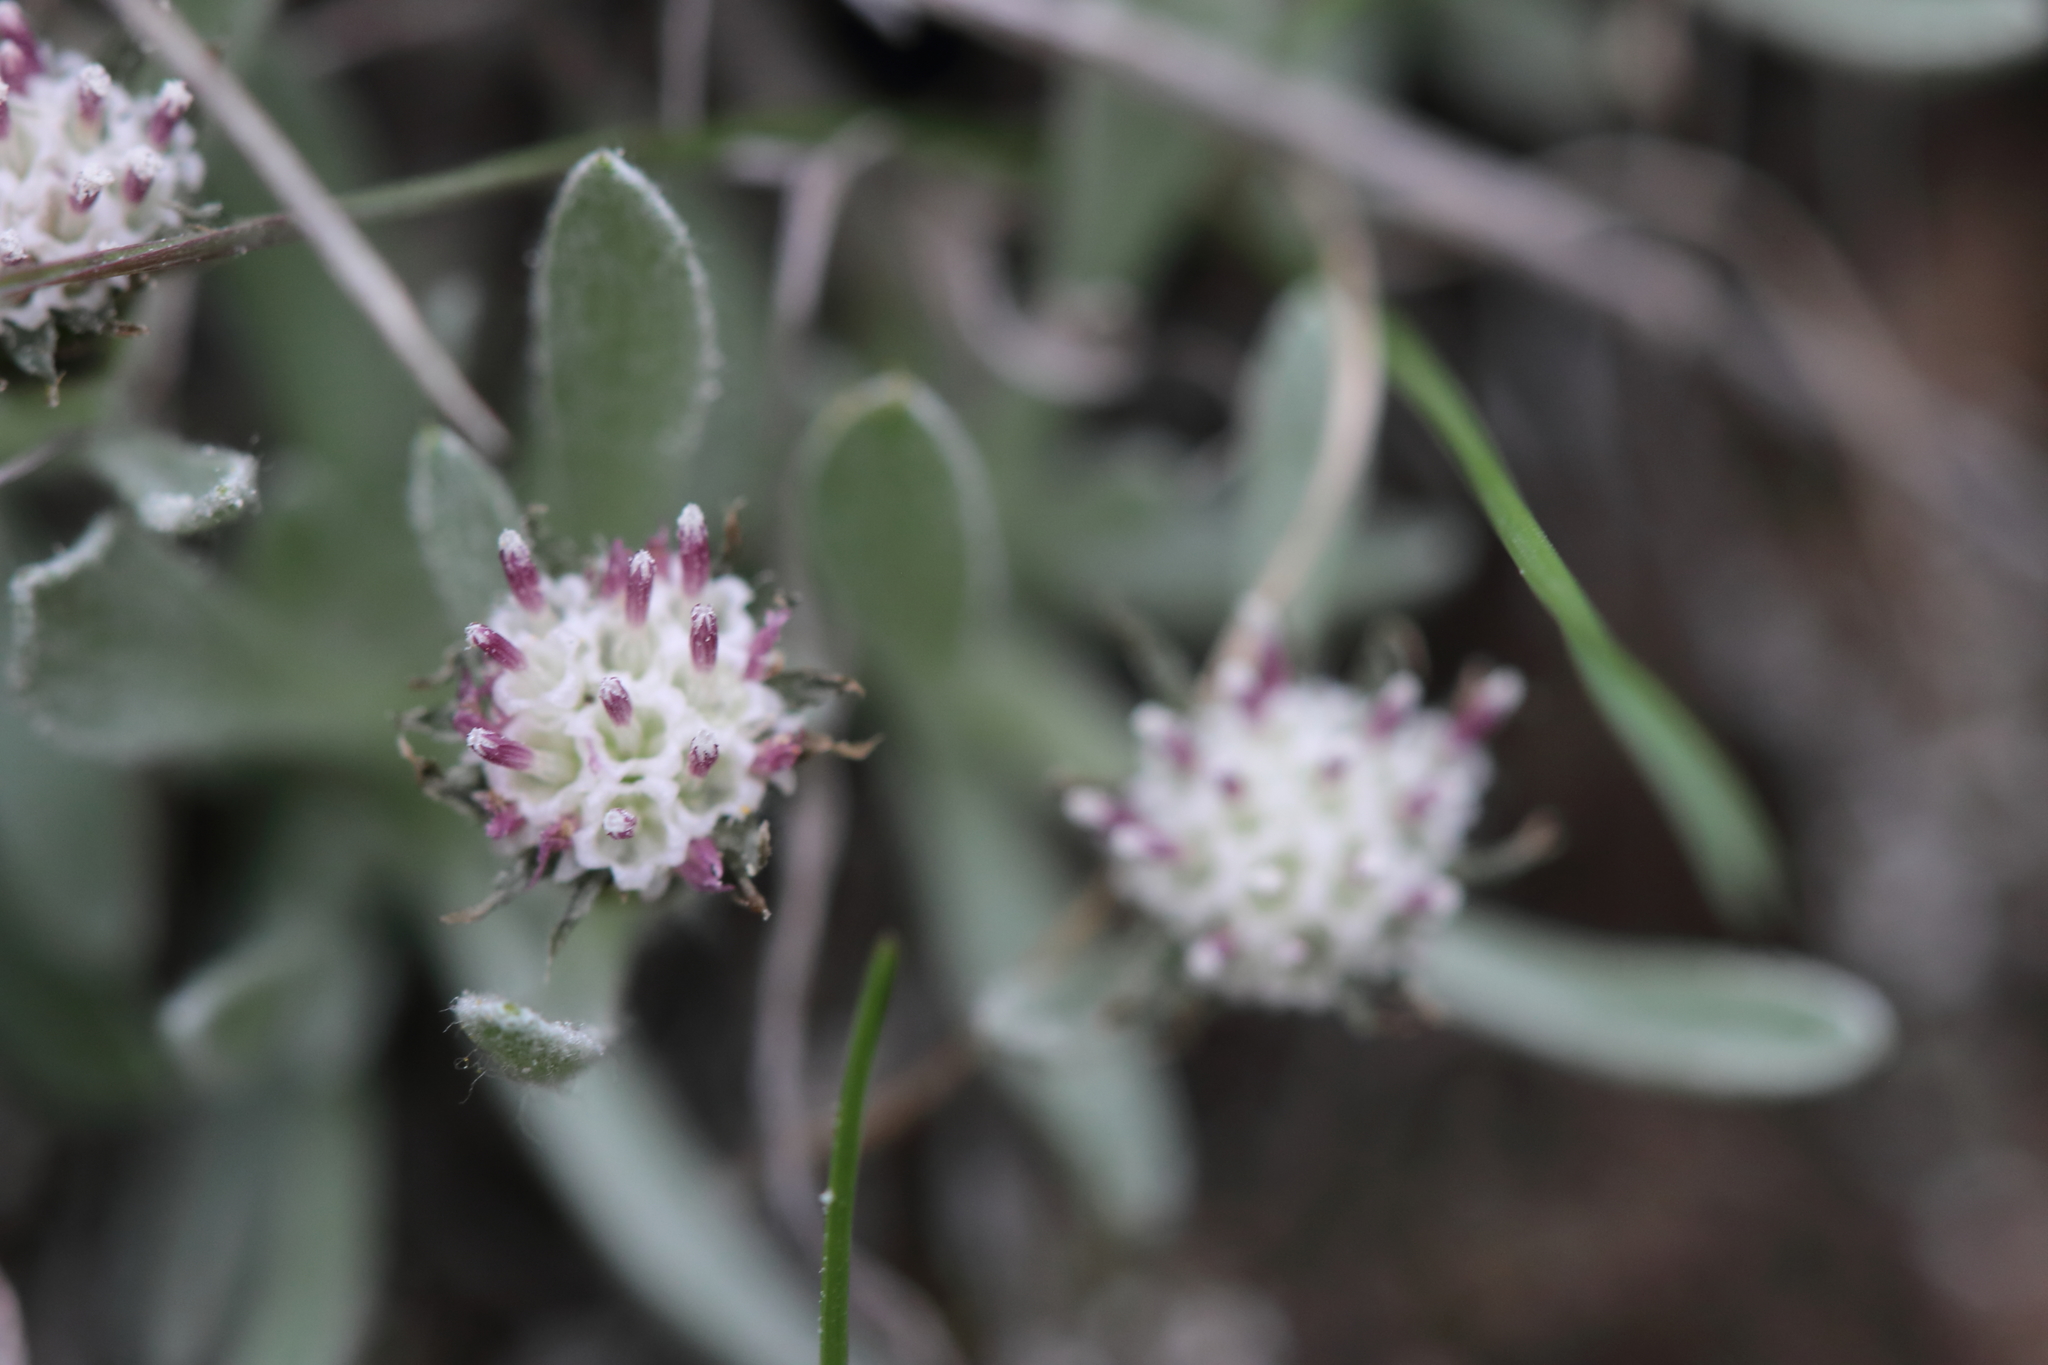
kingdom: Plantae
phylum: Tracheophyta
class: Magnoliopsida
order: Asterales
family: Asteraceae
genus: Antennaria
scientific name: Antennaria dimorpha
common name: Cushion pussytoes
